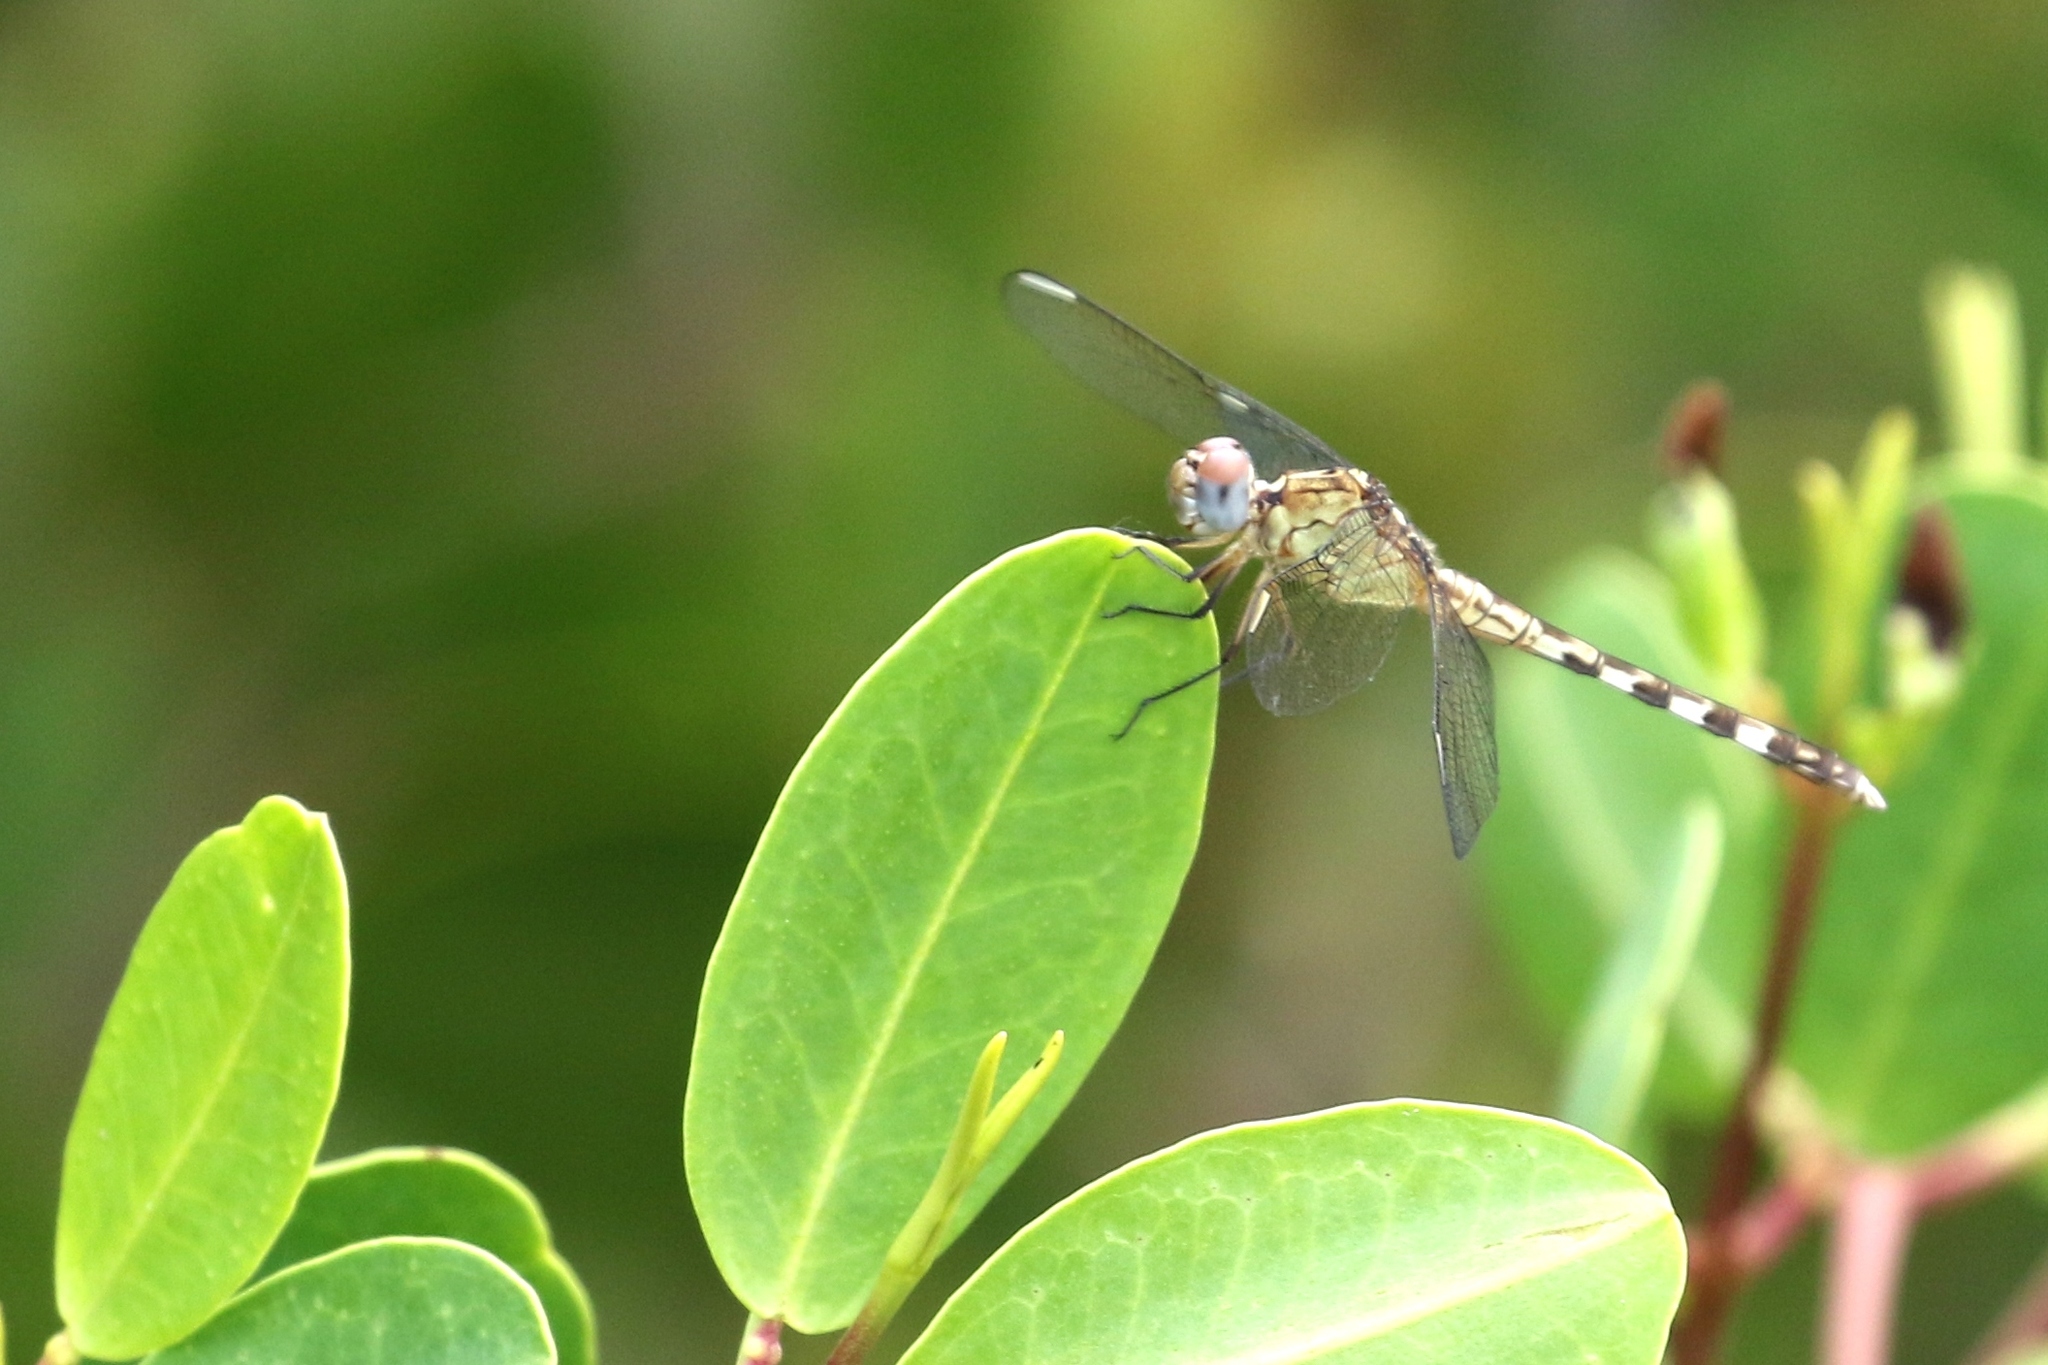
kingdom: Animalia
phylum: Arthropoda
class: Insecta
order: Odonata
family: Libellulidae
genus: Erythrodiplax
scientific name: Erythrodiplax umbrata
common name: Band-winged dragonlet
